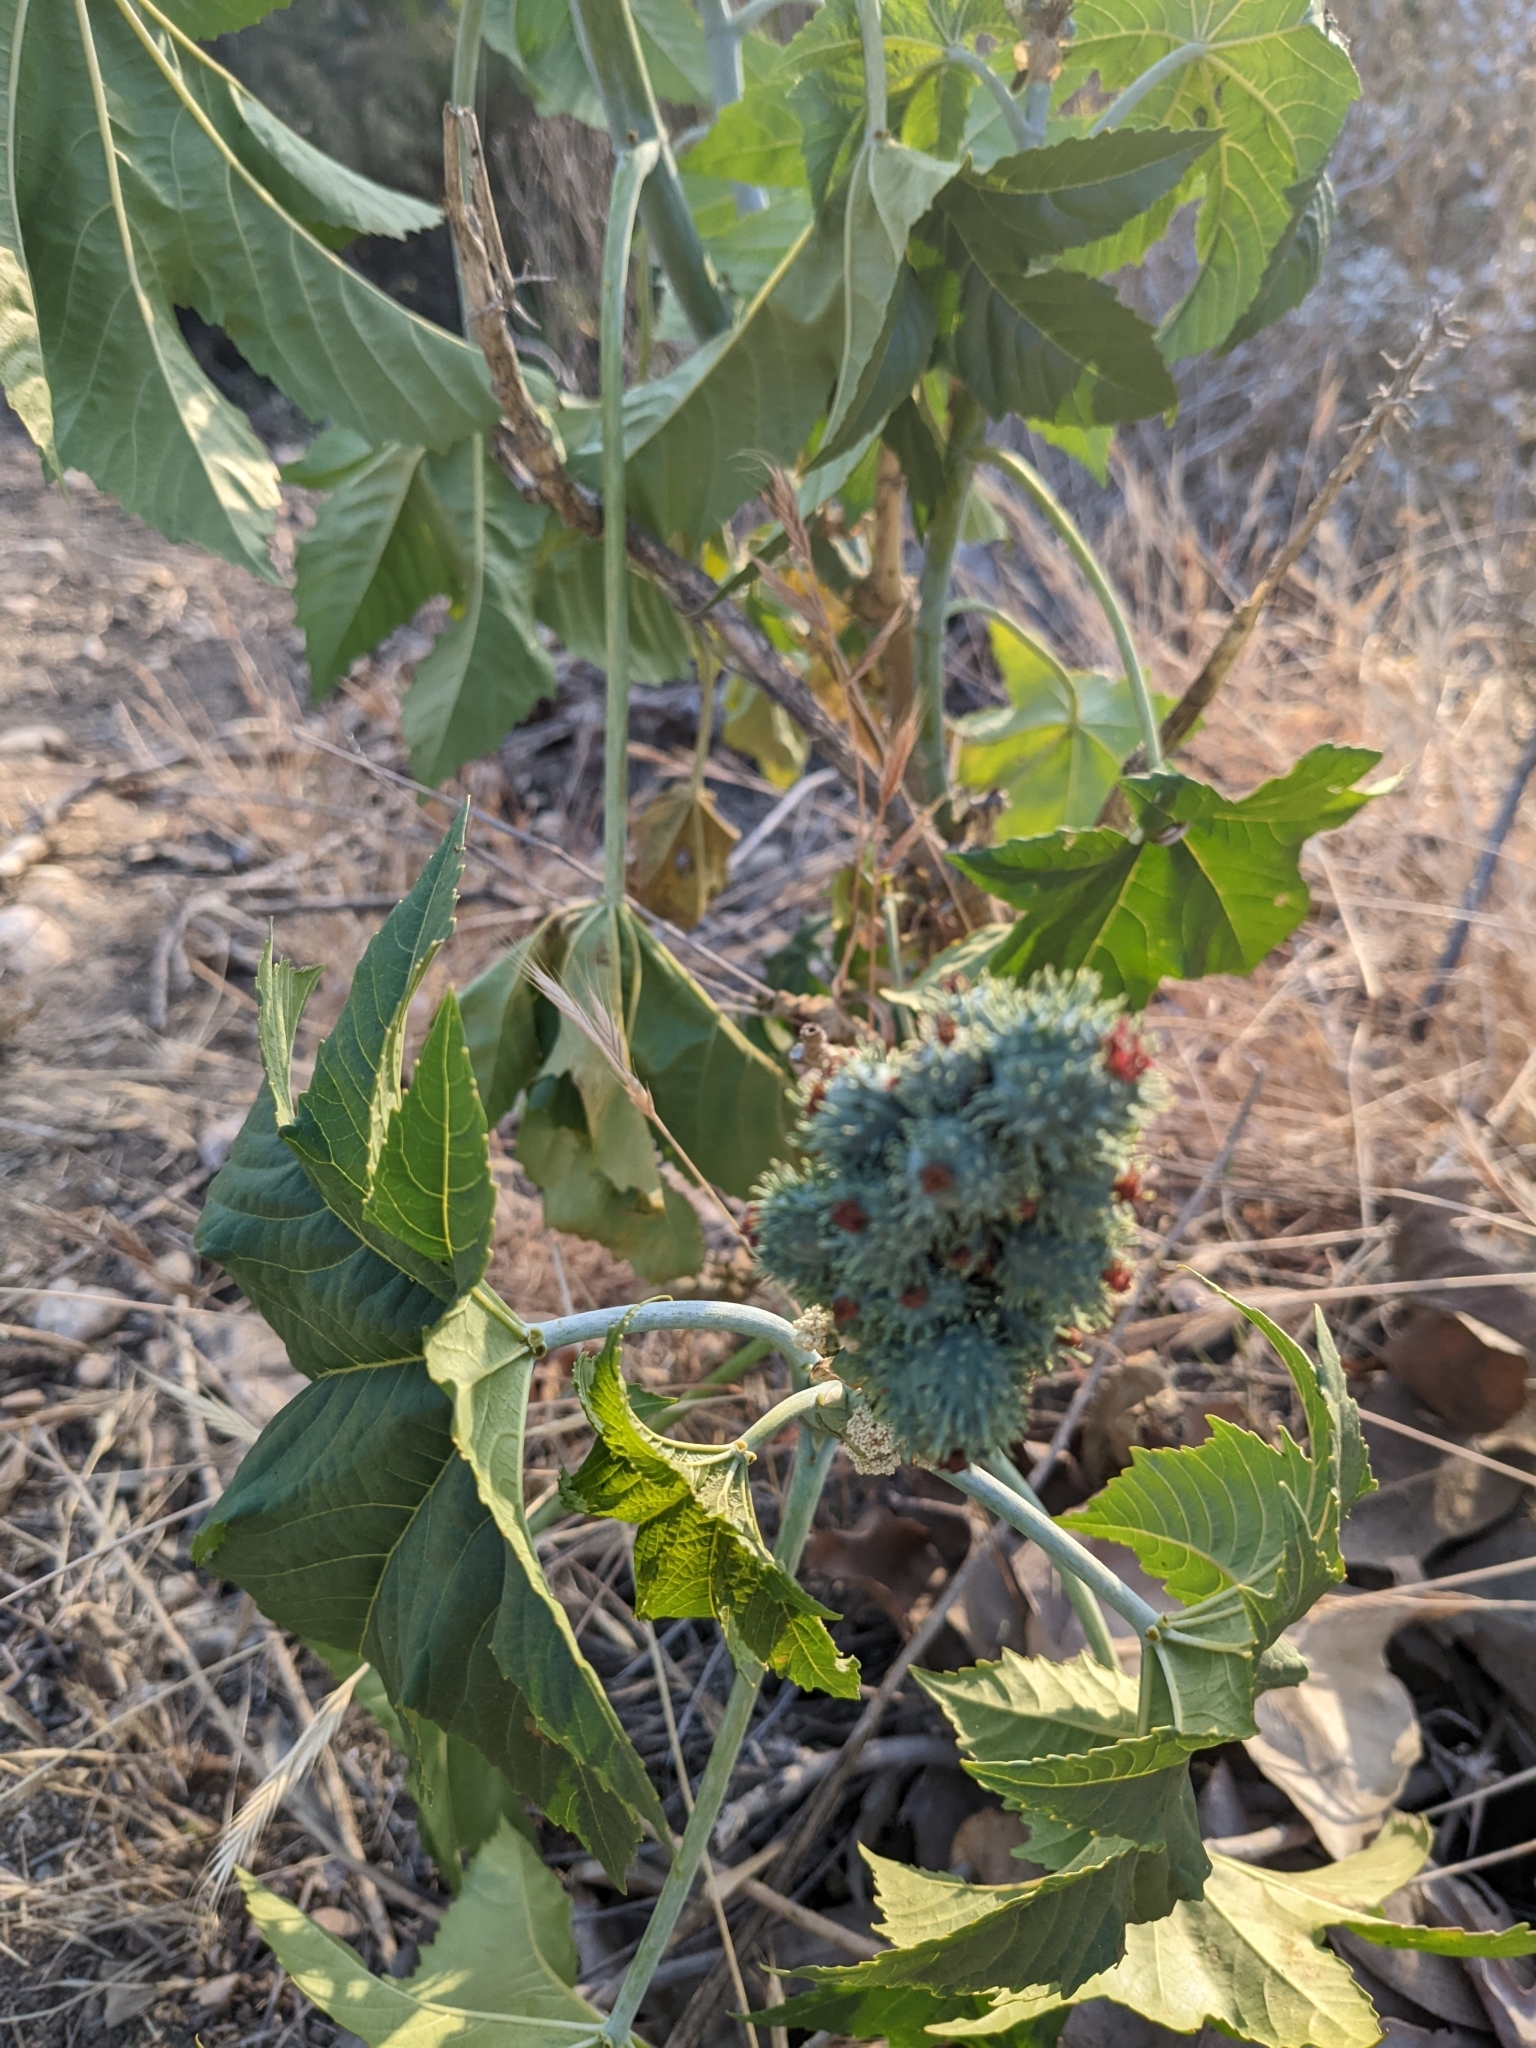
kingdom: Plantae
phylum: Tracheophyta
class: Magnoliopsida
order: Malpighiales
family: Euphorbiaceae
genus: Ricinus
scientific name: Ricinus communis
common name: Castor-oil-plant
